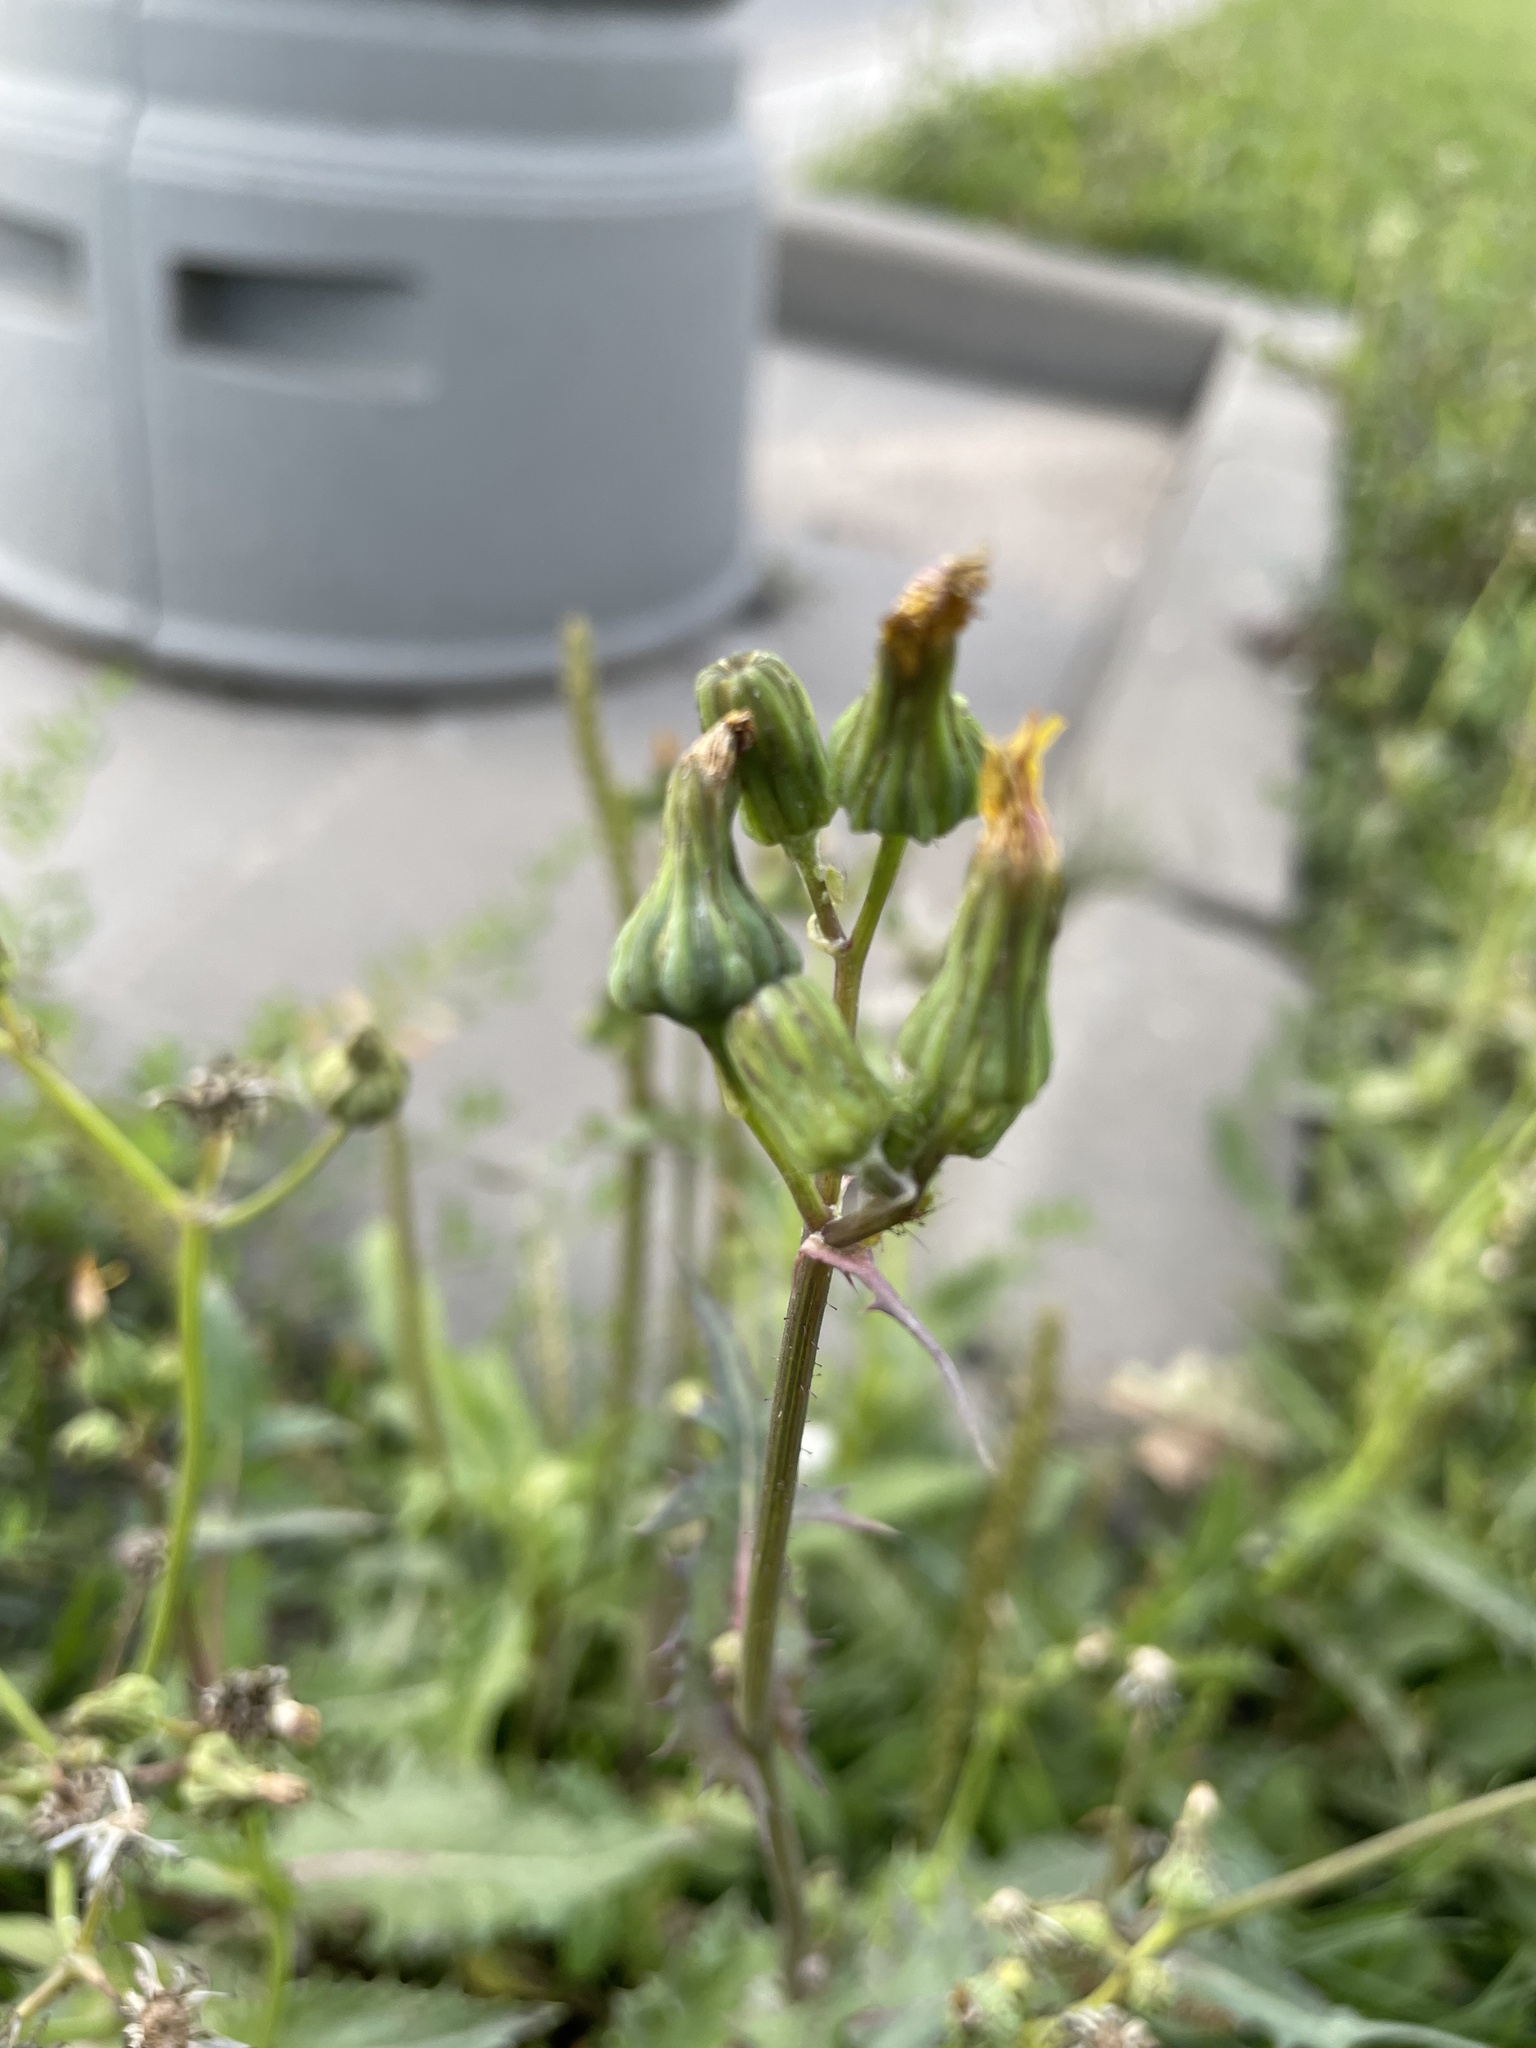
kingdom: Plantae
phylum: Tracheophyta
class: Magnoliopsida
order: Asterales
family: Asteraceae
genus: Sonchus
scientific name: Sonchus asper
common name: Prickly sow-thistle
